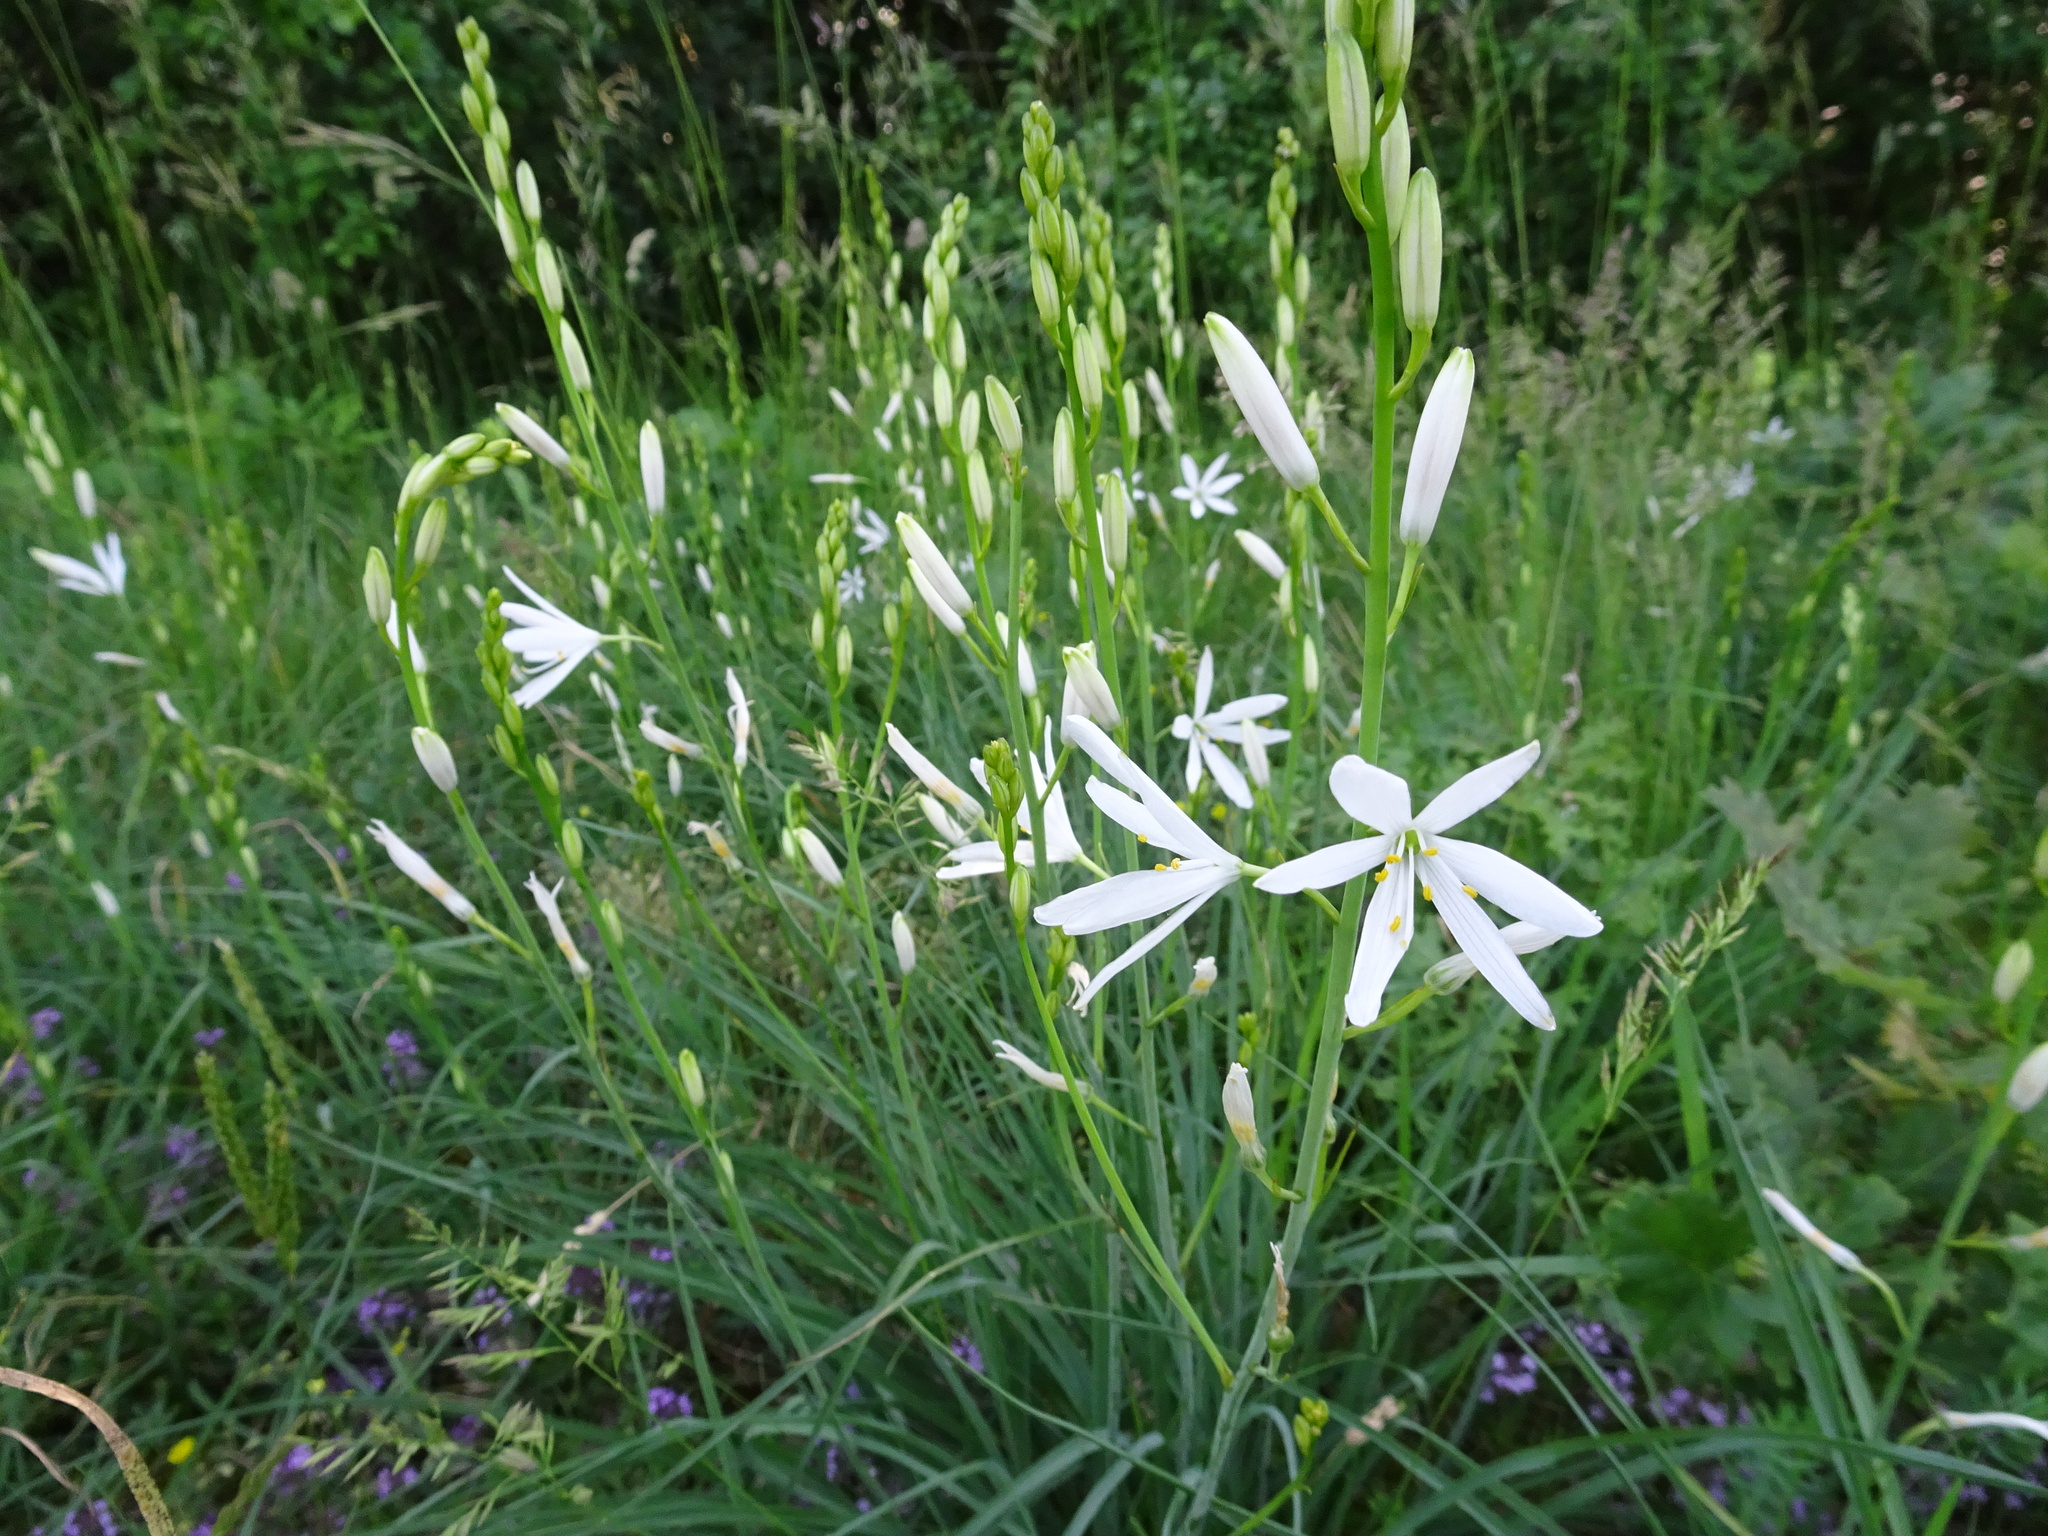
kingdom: Plantae
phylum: Tracheophyta
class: Liliopsida
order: Asparagales
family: Asparagaceae
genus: Anthericum
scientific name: Anthericum liliago
